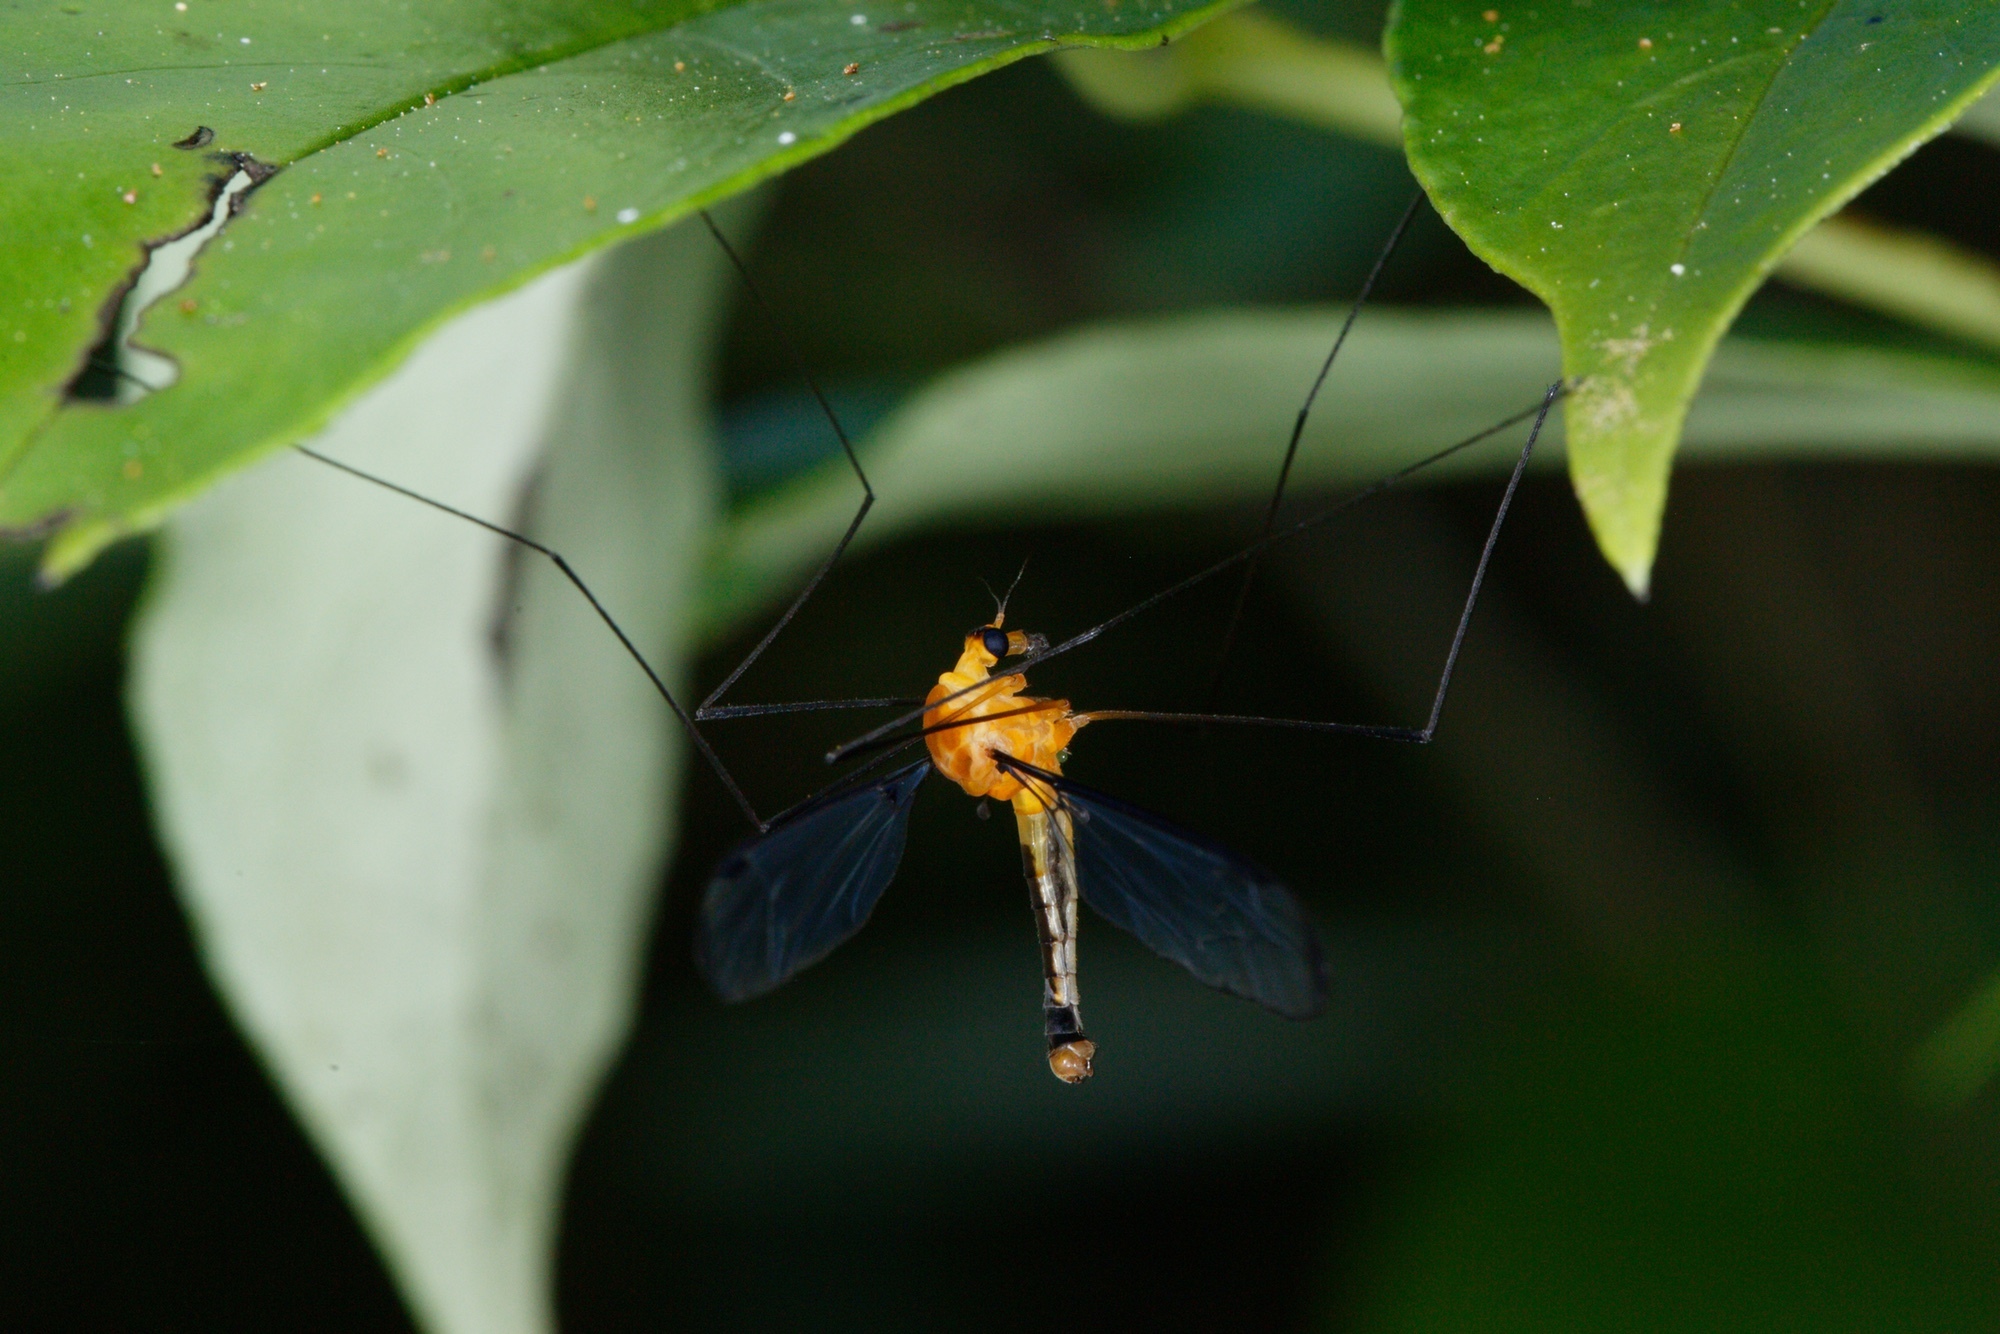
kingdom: Animalia
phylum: Arthropoda
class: Insecta
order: Diptera
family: Tipulidae
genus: Aurotipula
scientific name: Aurotipula
